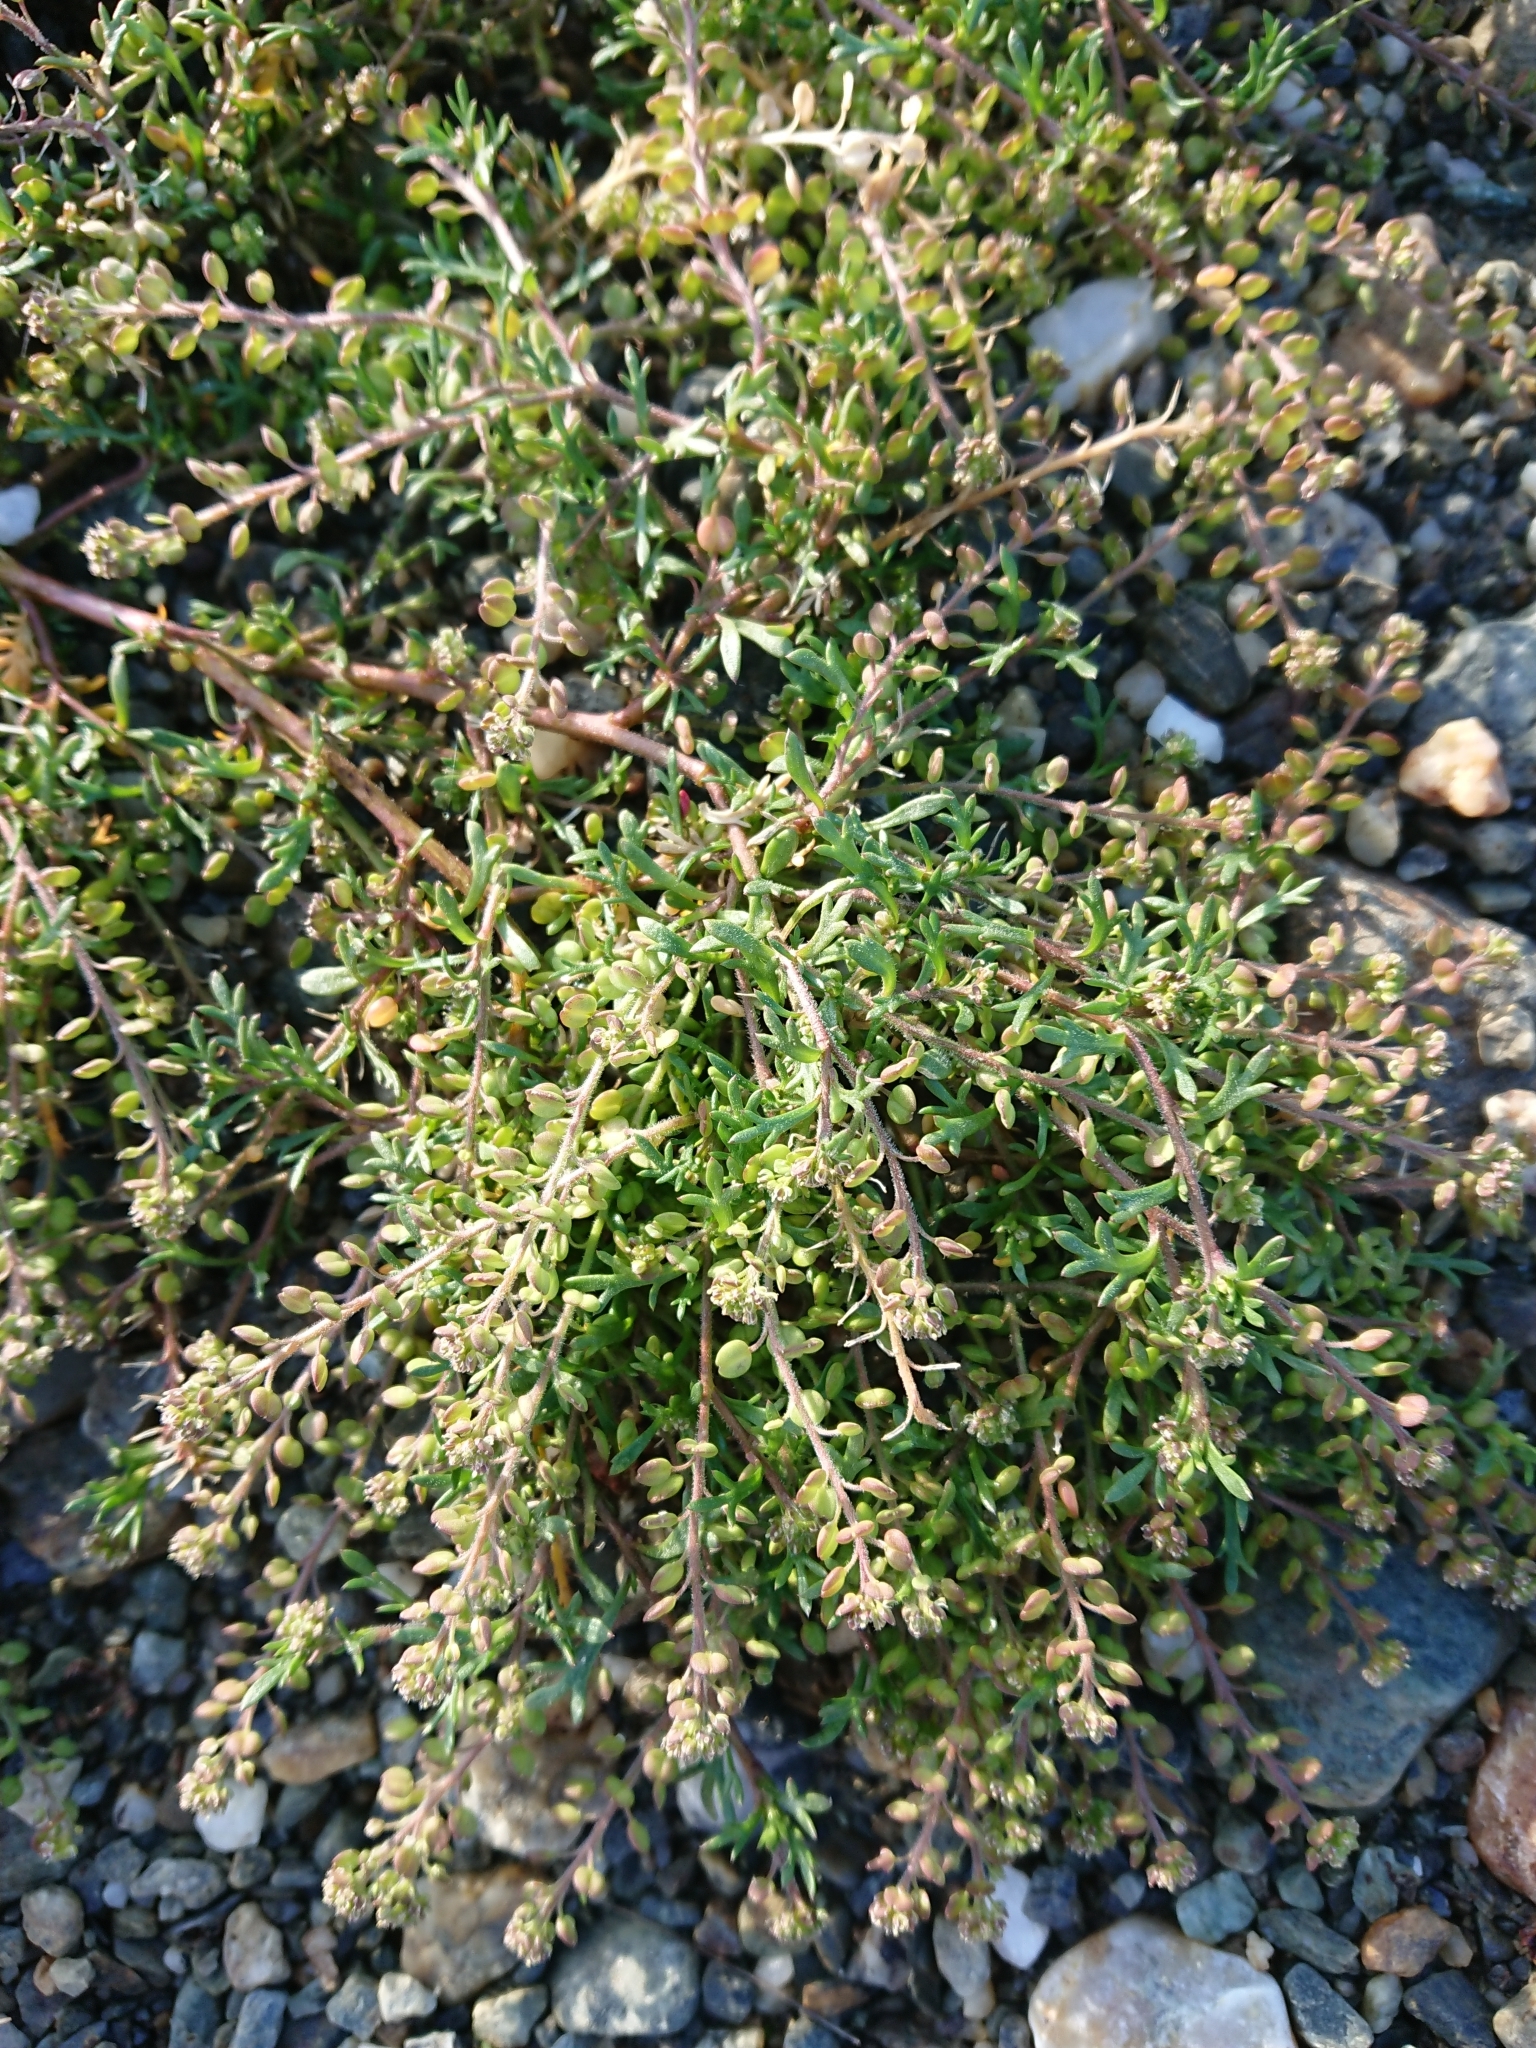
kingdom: Plantae
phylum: Tracheophyta
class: Magnoliopsida
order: Caryophyllales
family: Caryophyllaceae
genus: Spergularia
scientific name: Spergularia marina
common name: Lesser sea-spurrey
